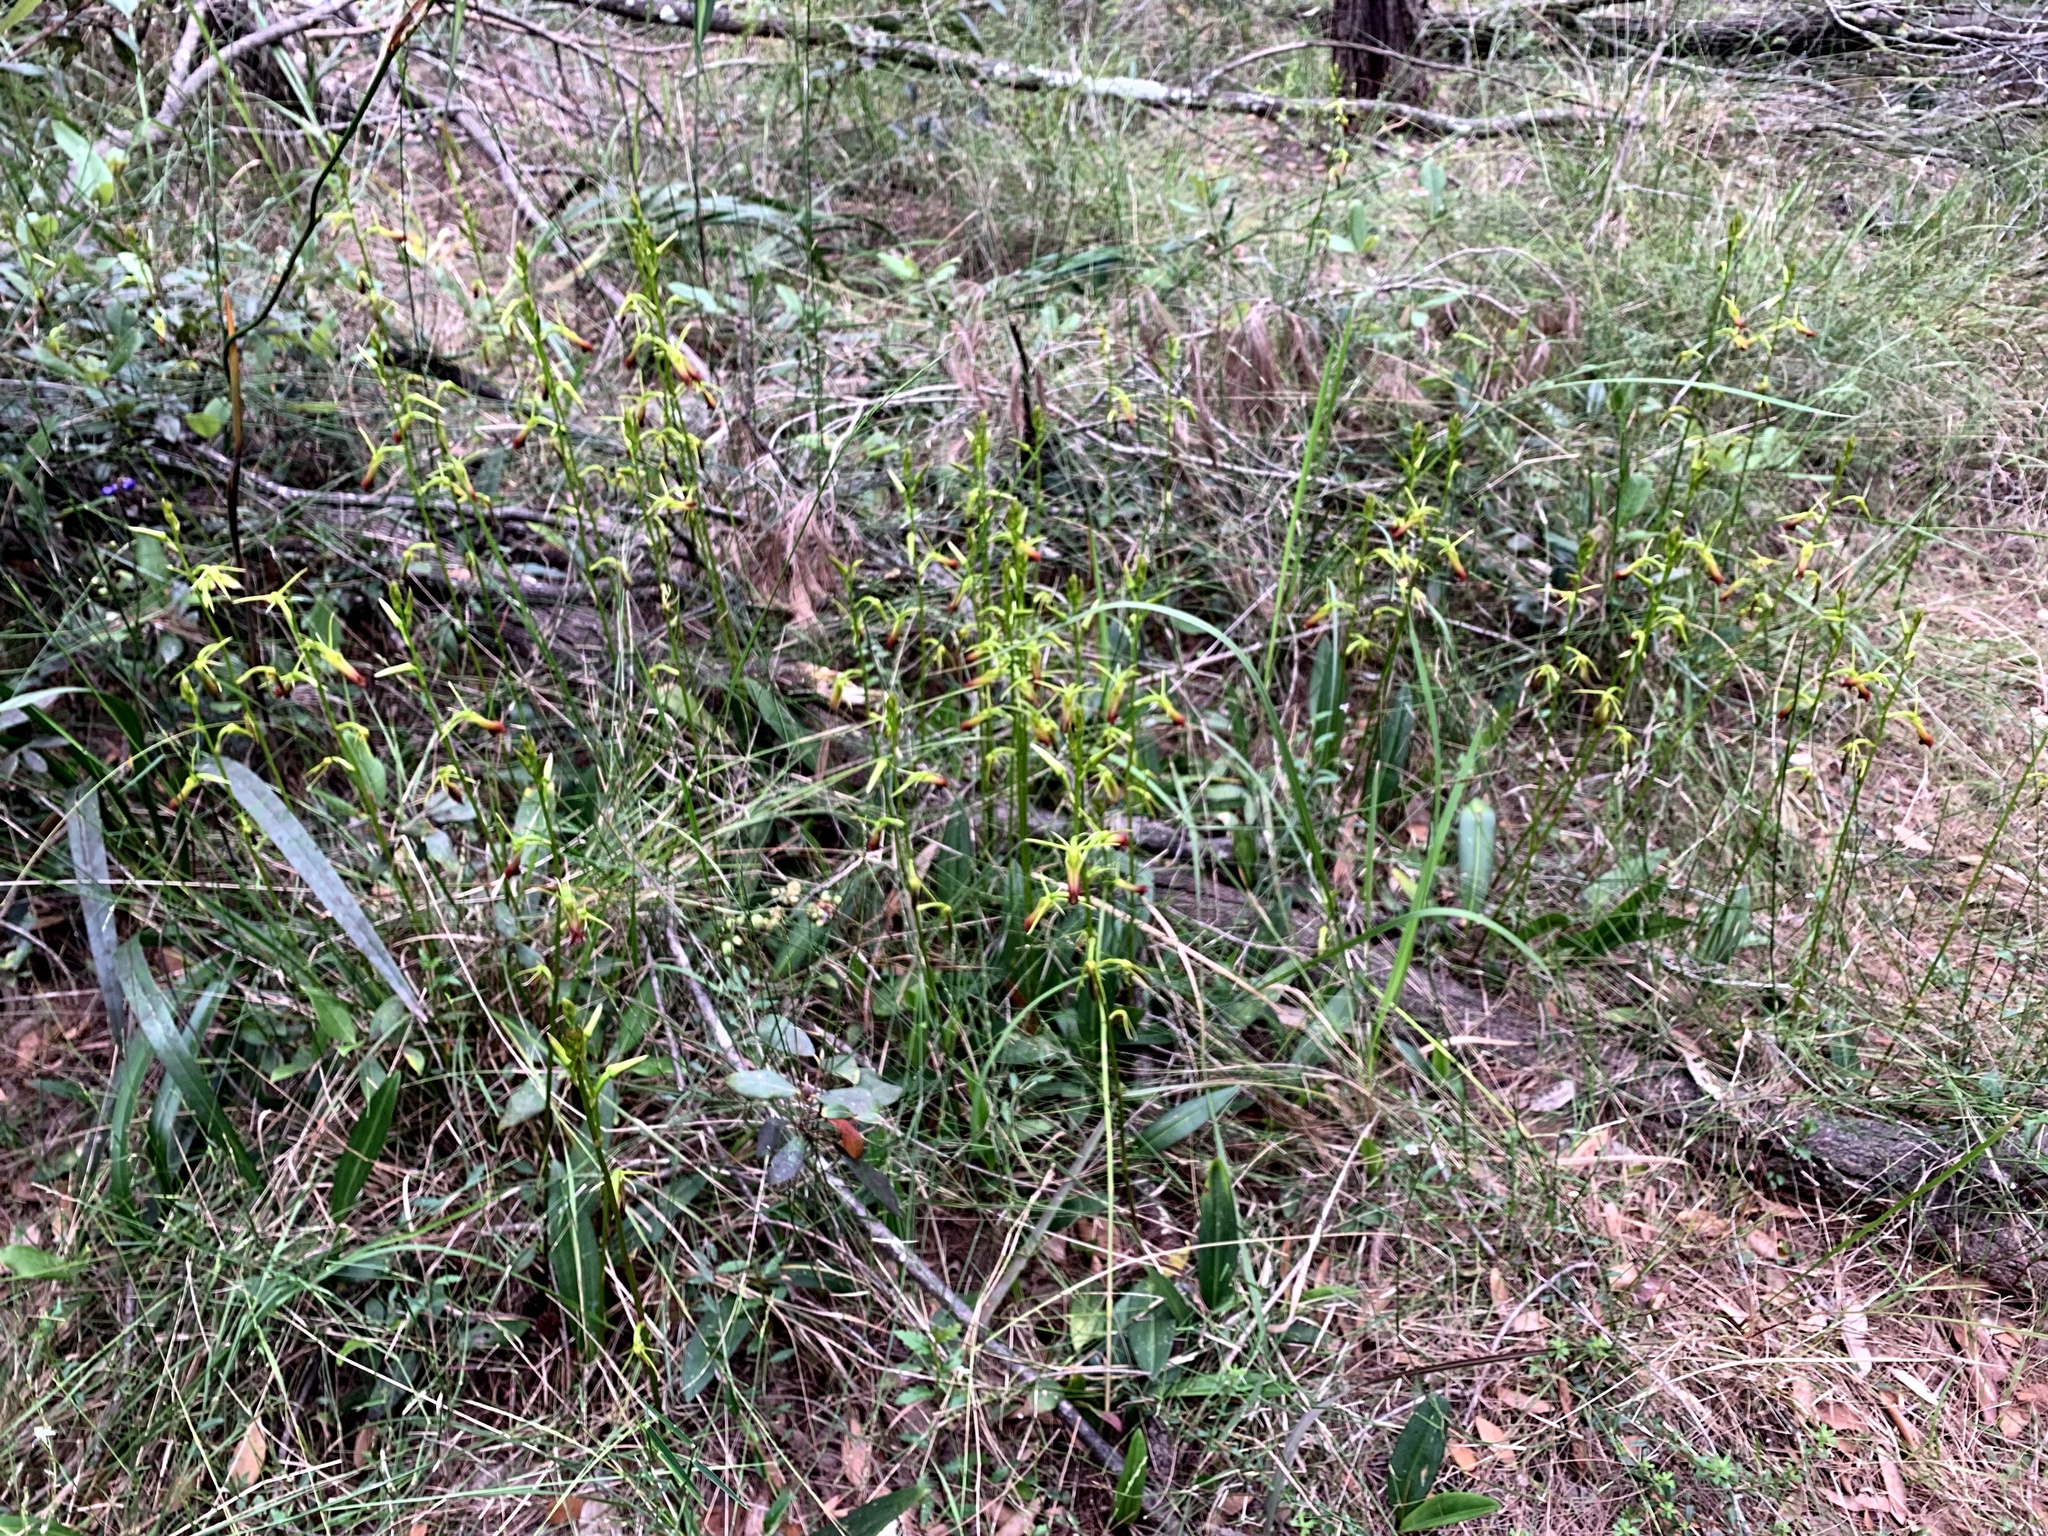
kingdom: Plantae
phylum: Tracheophyta
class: Liliopsida
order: Asparagales
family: Orchidaceae
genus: Cryptostylis
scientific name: Cryptostylis subulata
